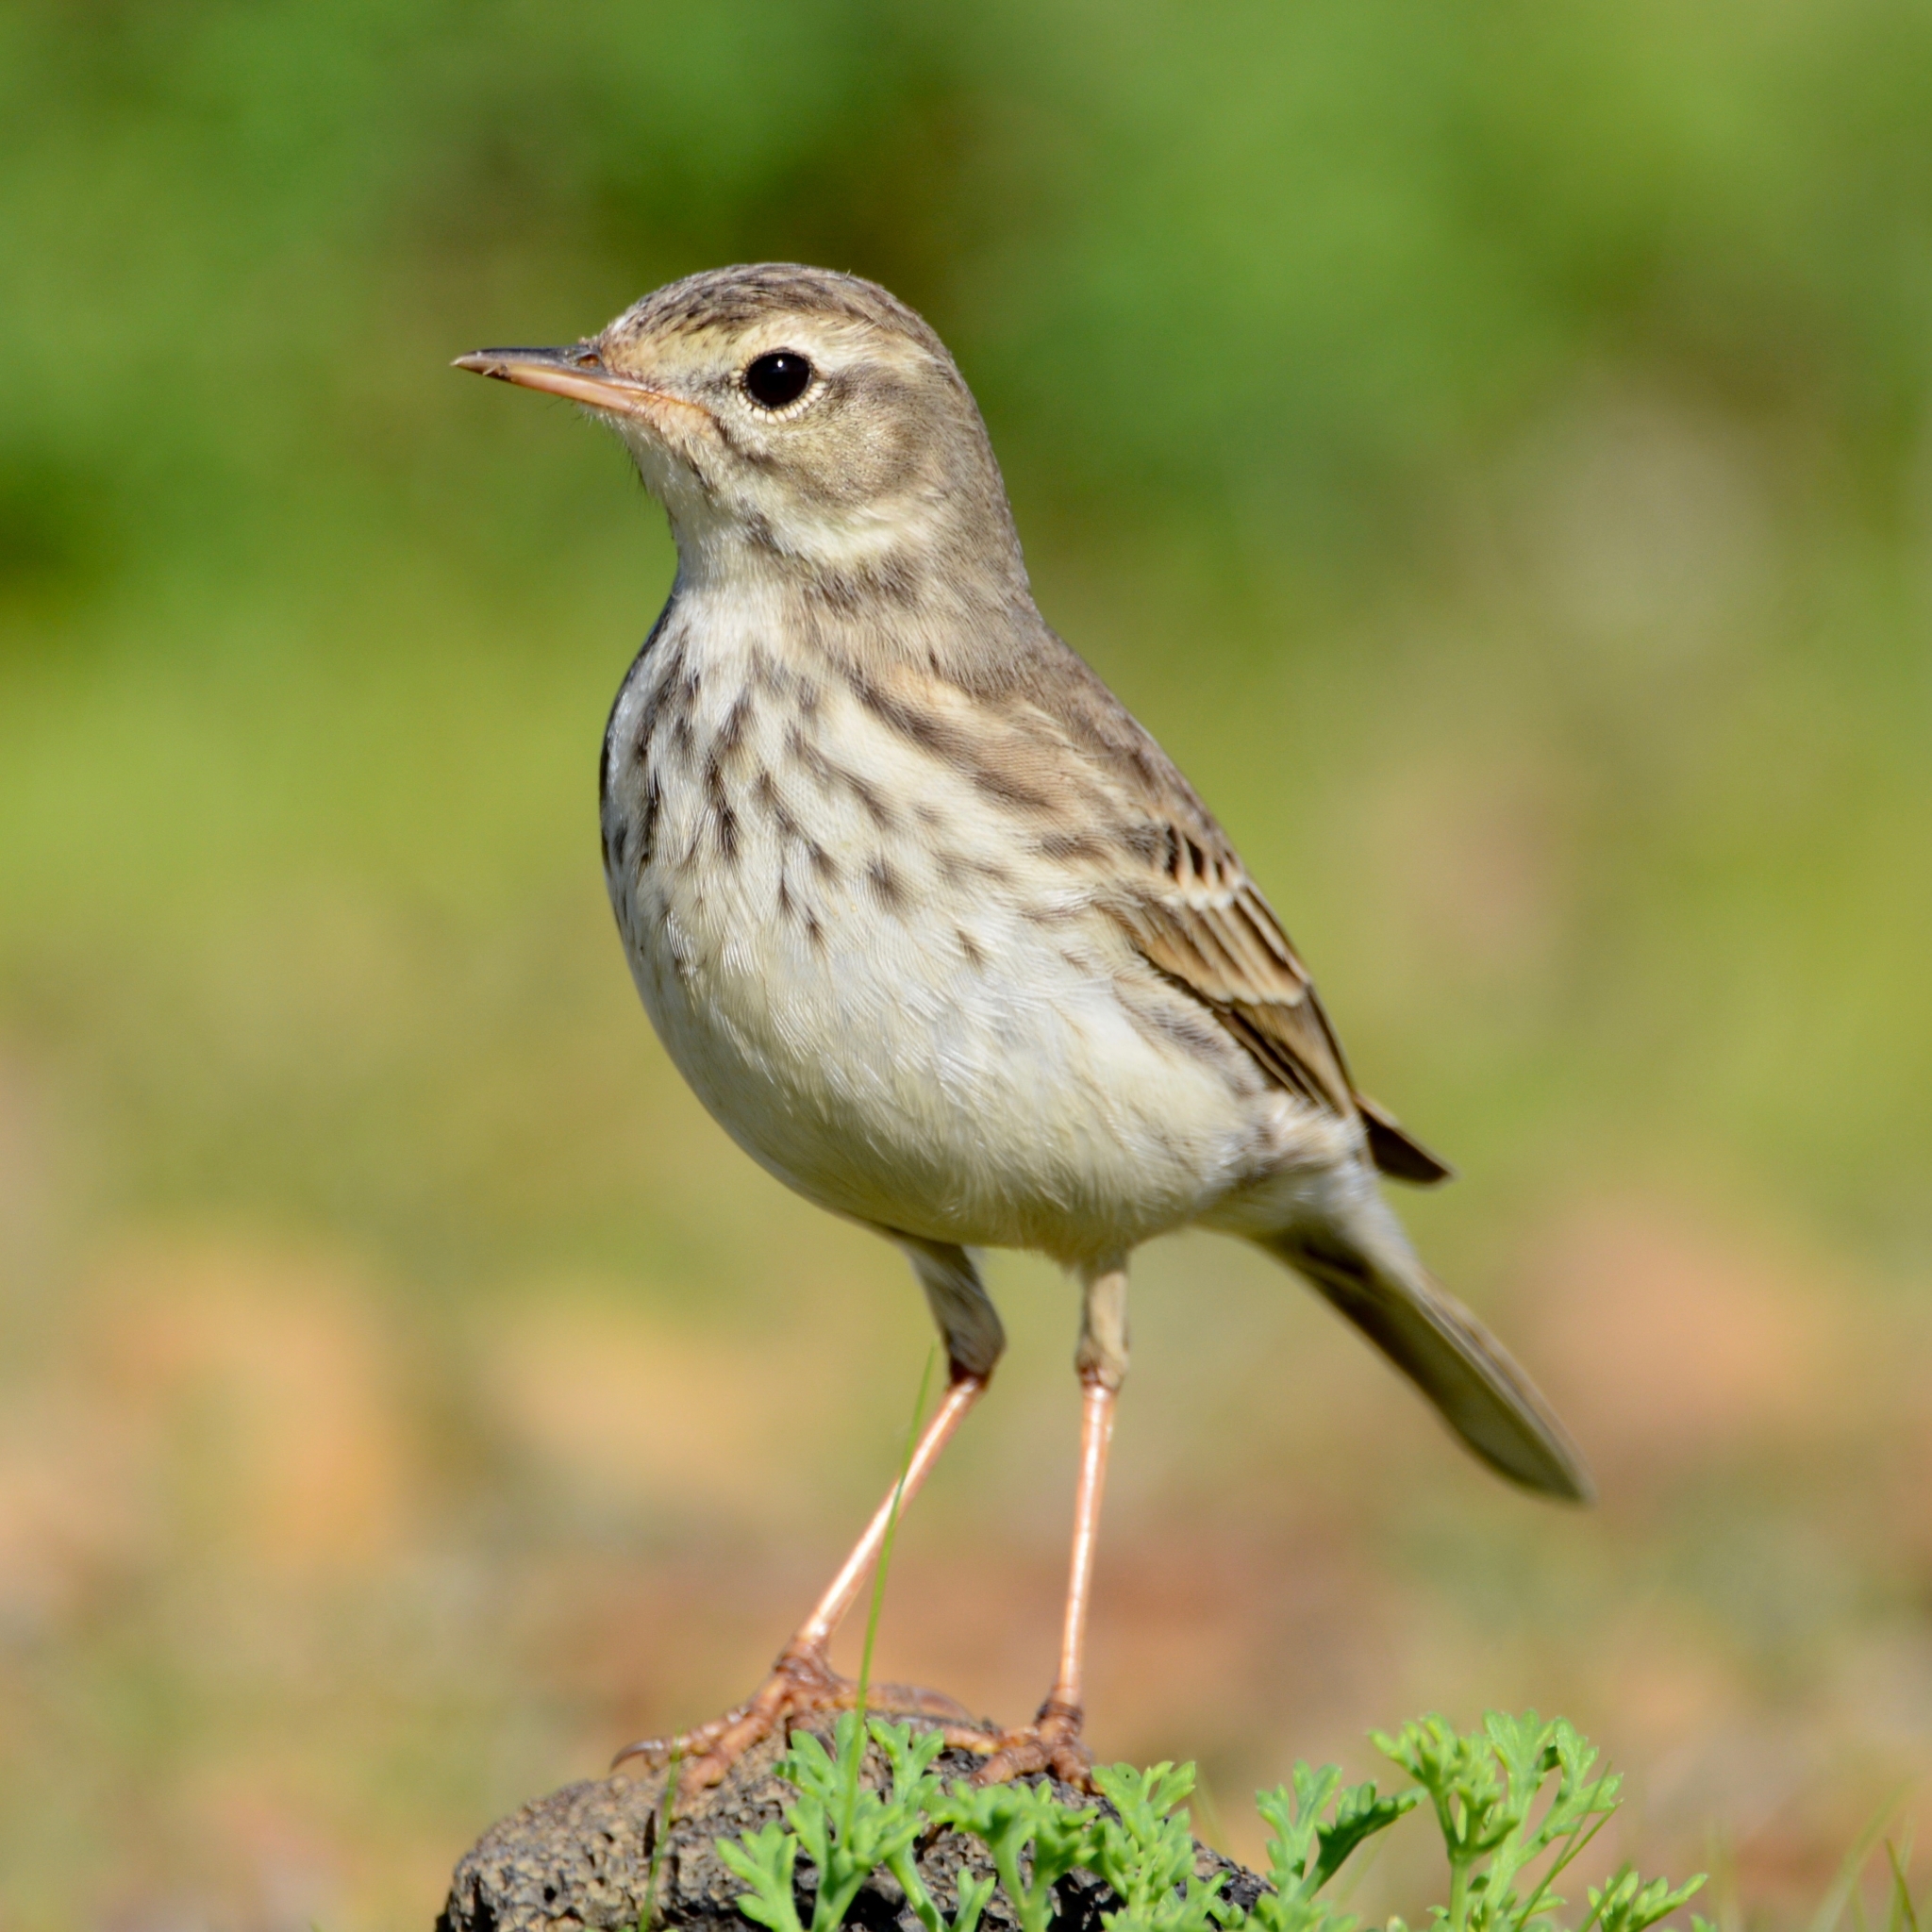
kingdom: Animalia
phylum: Chordata
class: Aves
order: Passeriformes
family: Motacillidae
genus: Anthus
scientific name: Anthus berthelotii
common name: Berthelot's pipit
